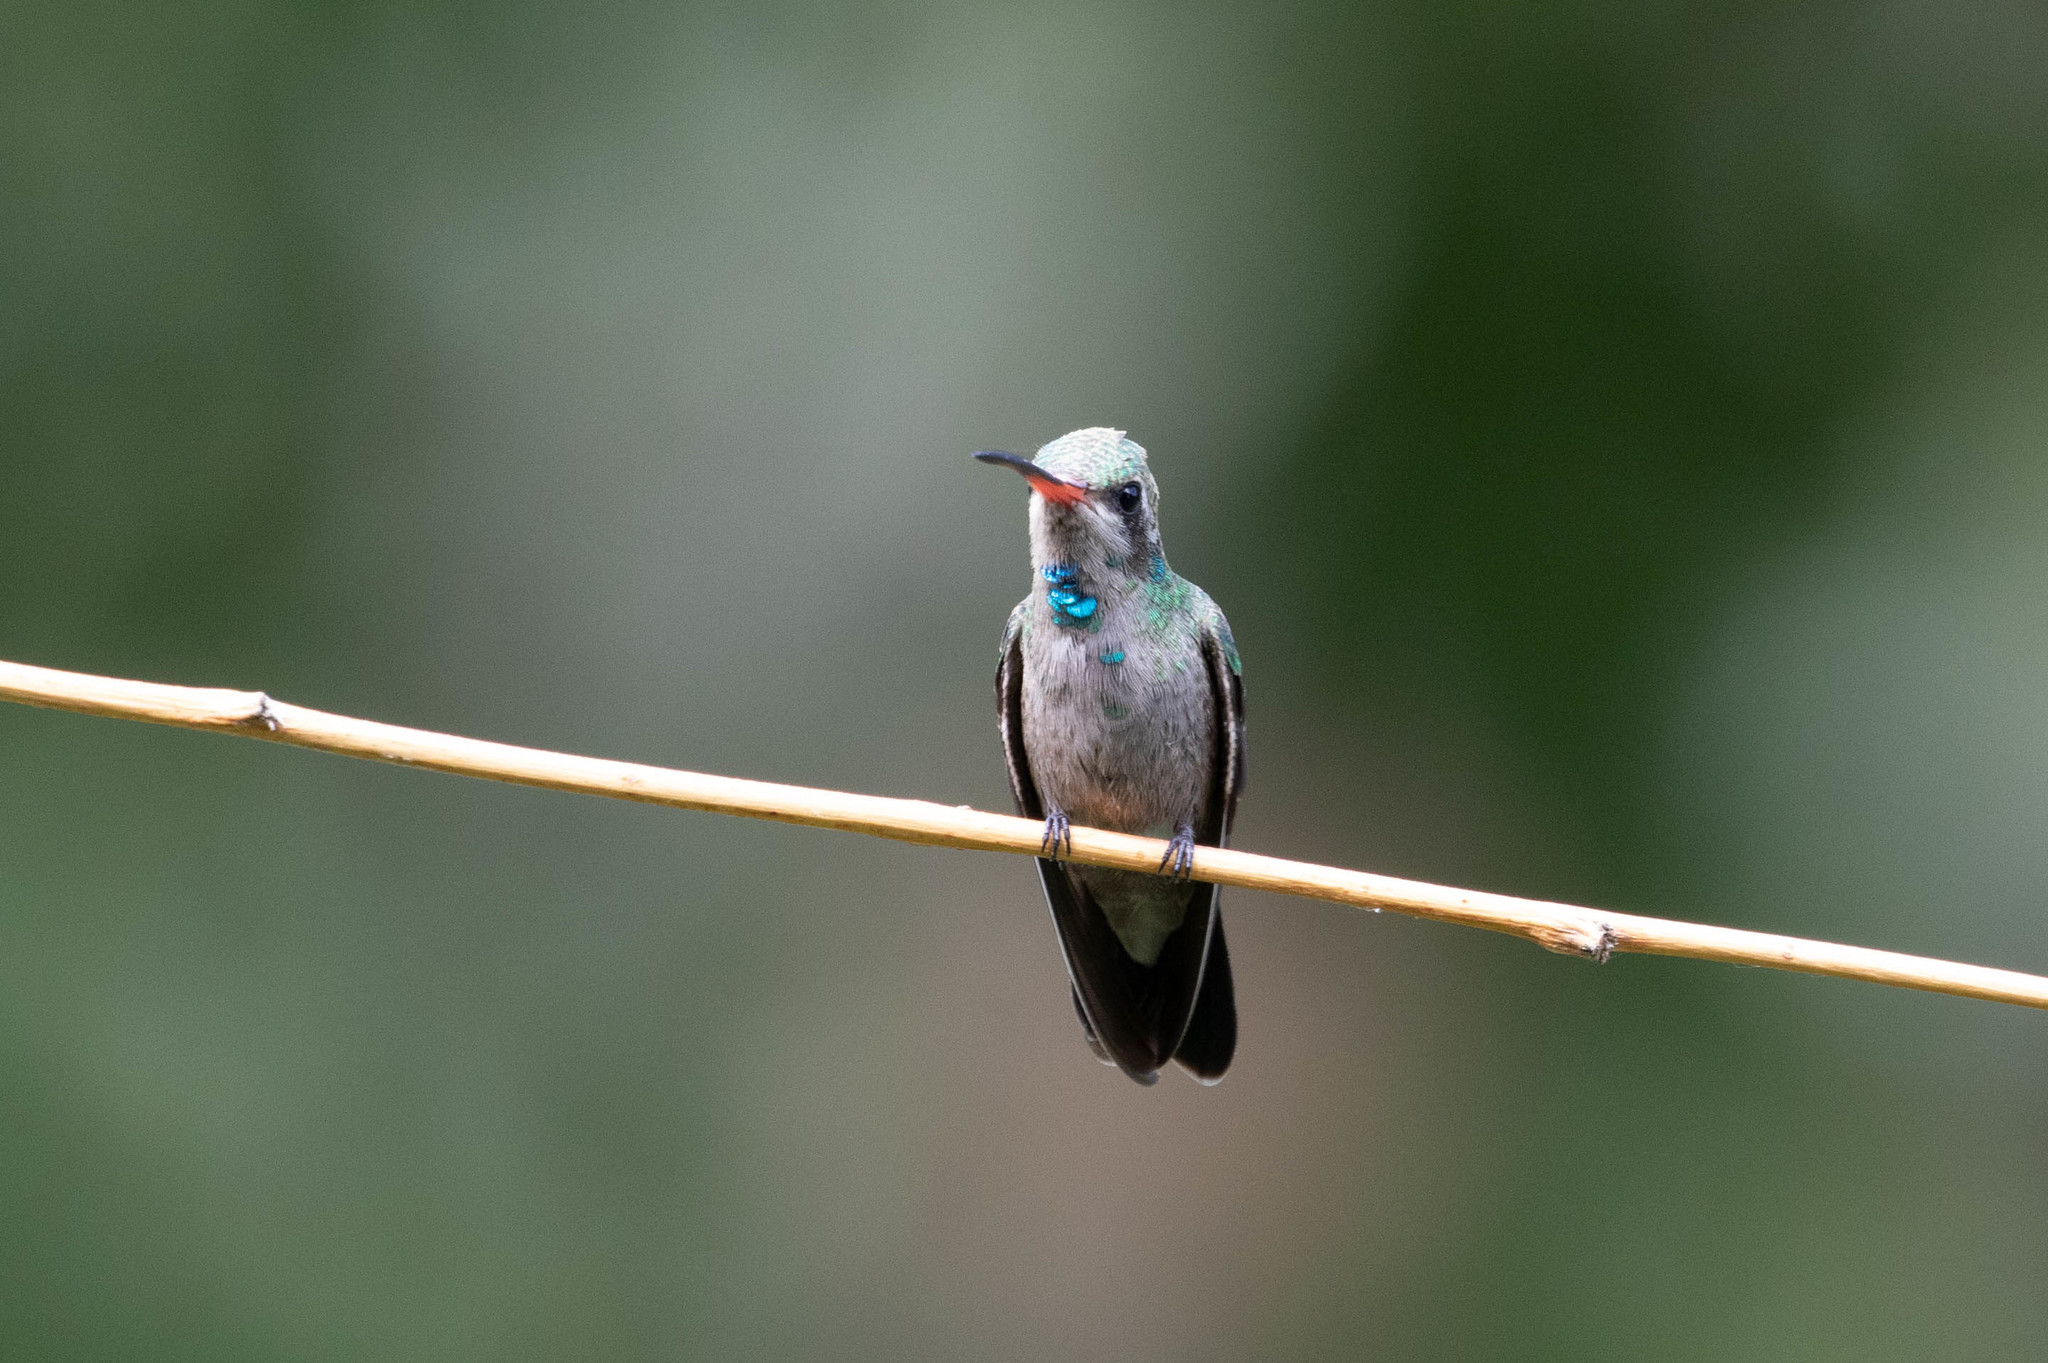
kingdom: Animalia
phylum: Chordata
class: Aves
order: Apodiformes
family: Trochilidae
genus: Cynanthus
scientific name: Cynanthus latirostris
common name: Broad-billed hummingbird
